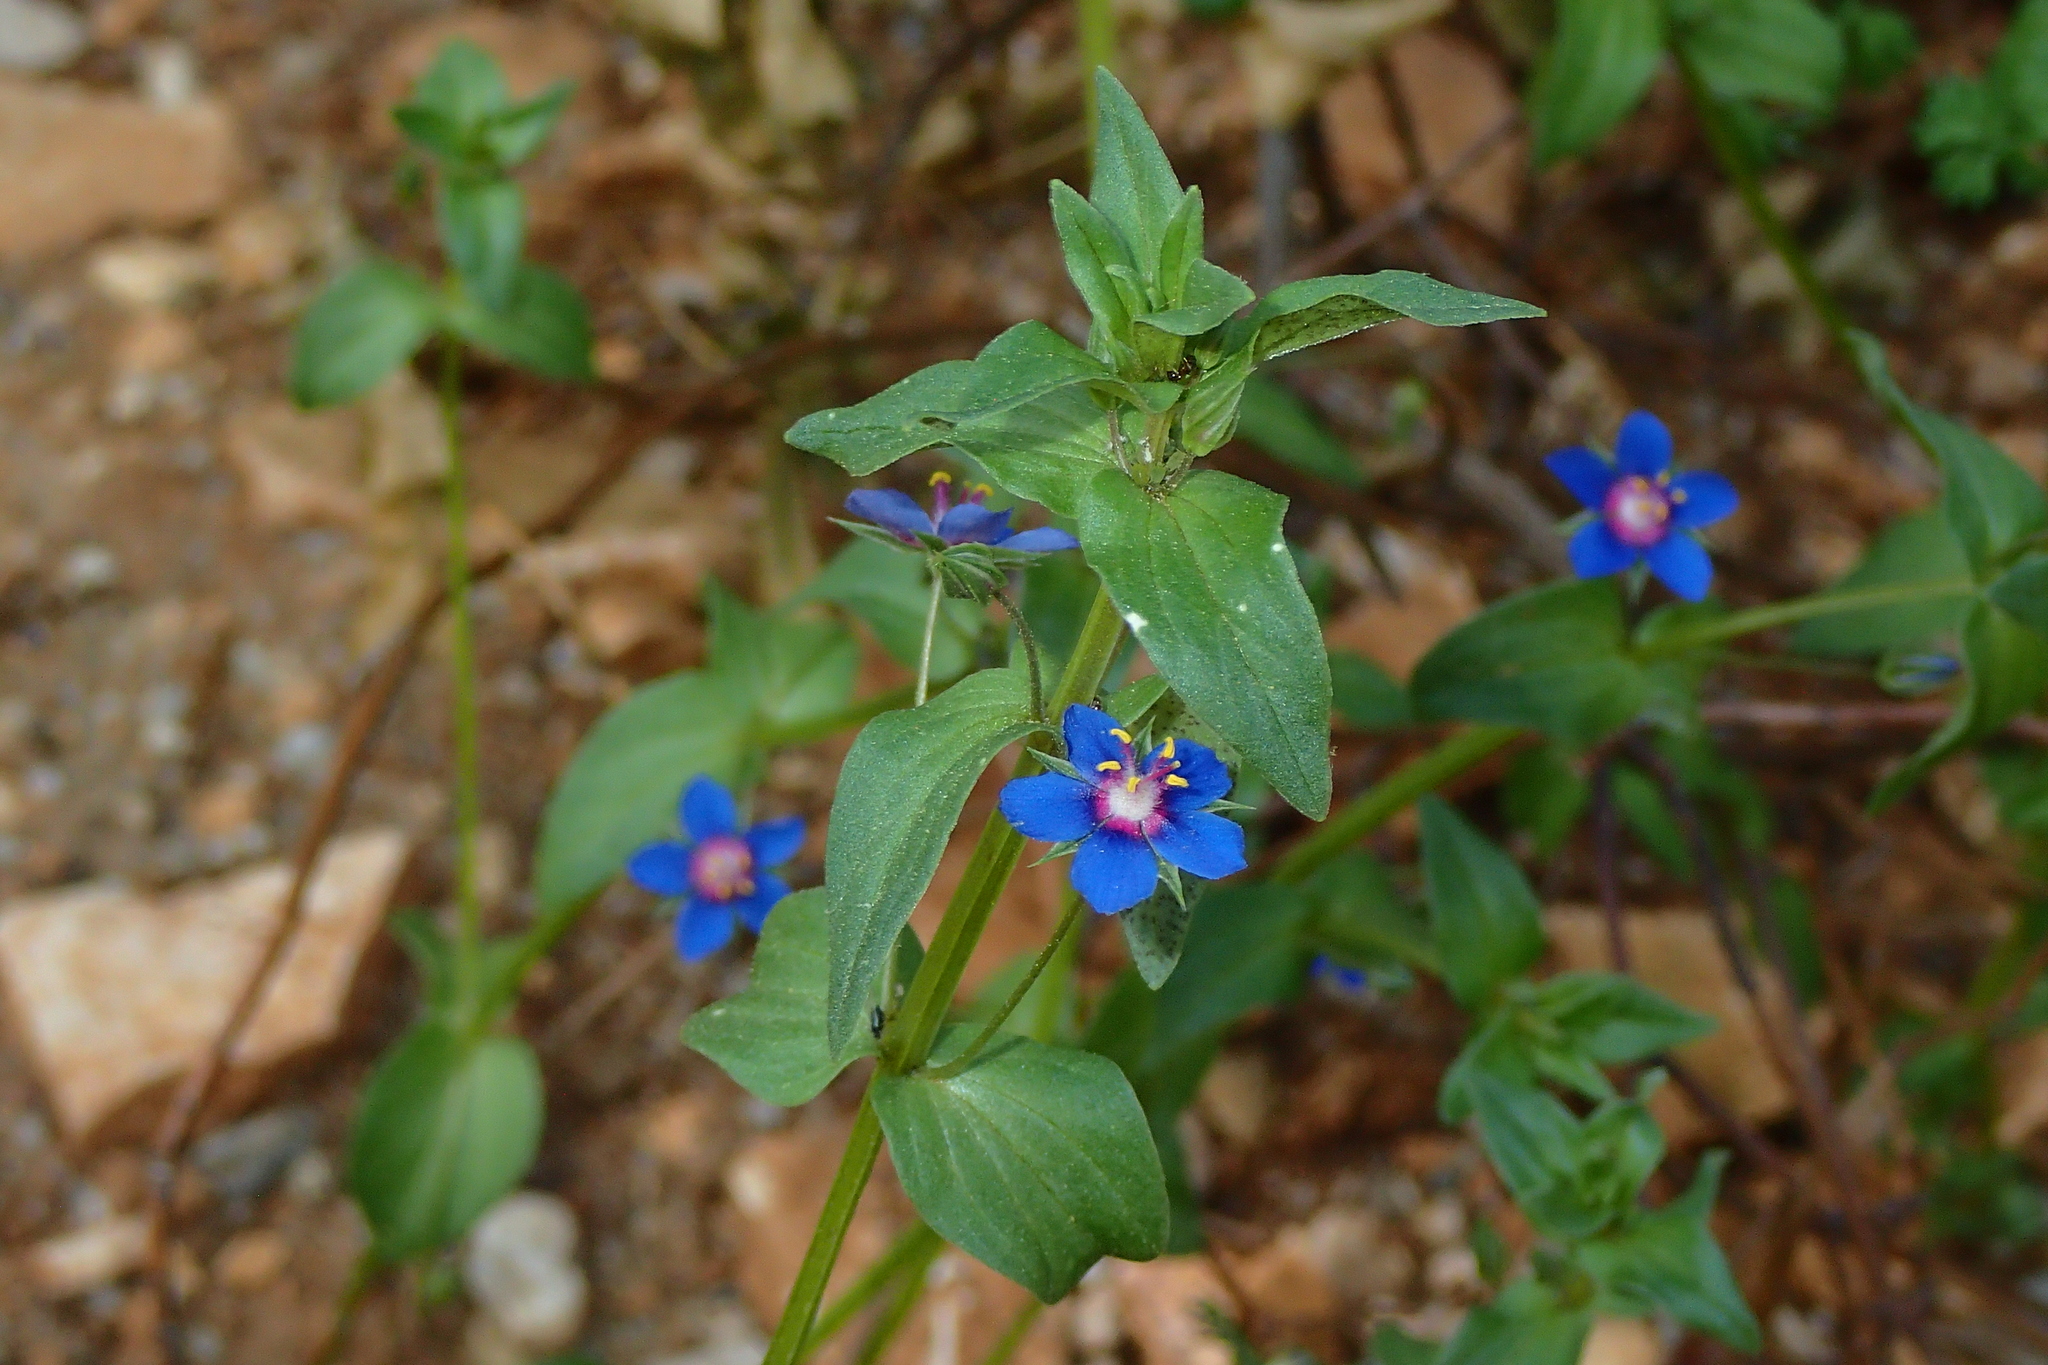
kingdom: Plantae
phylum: Tracheophyta
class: Magnoliopsida
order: Ericales
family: Primulaceae
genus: Lysimachia
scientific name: Lysimachia foemina
